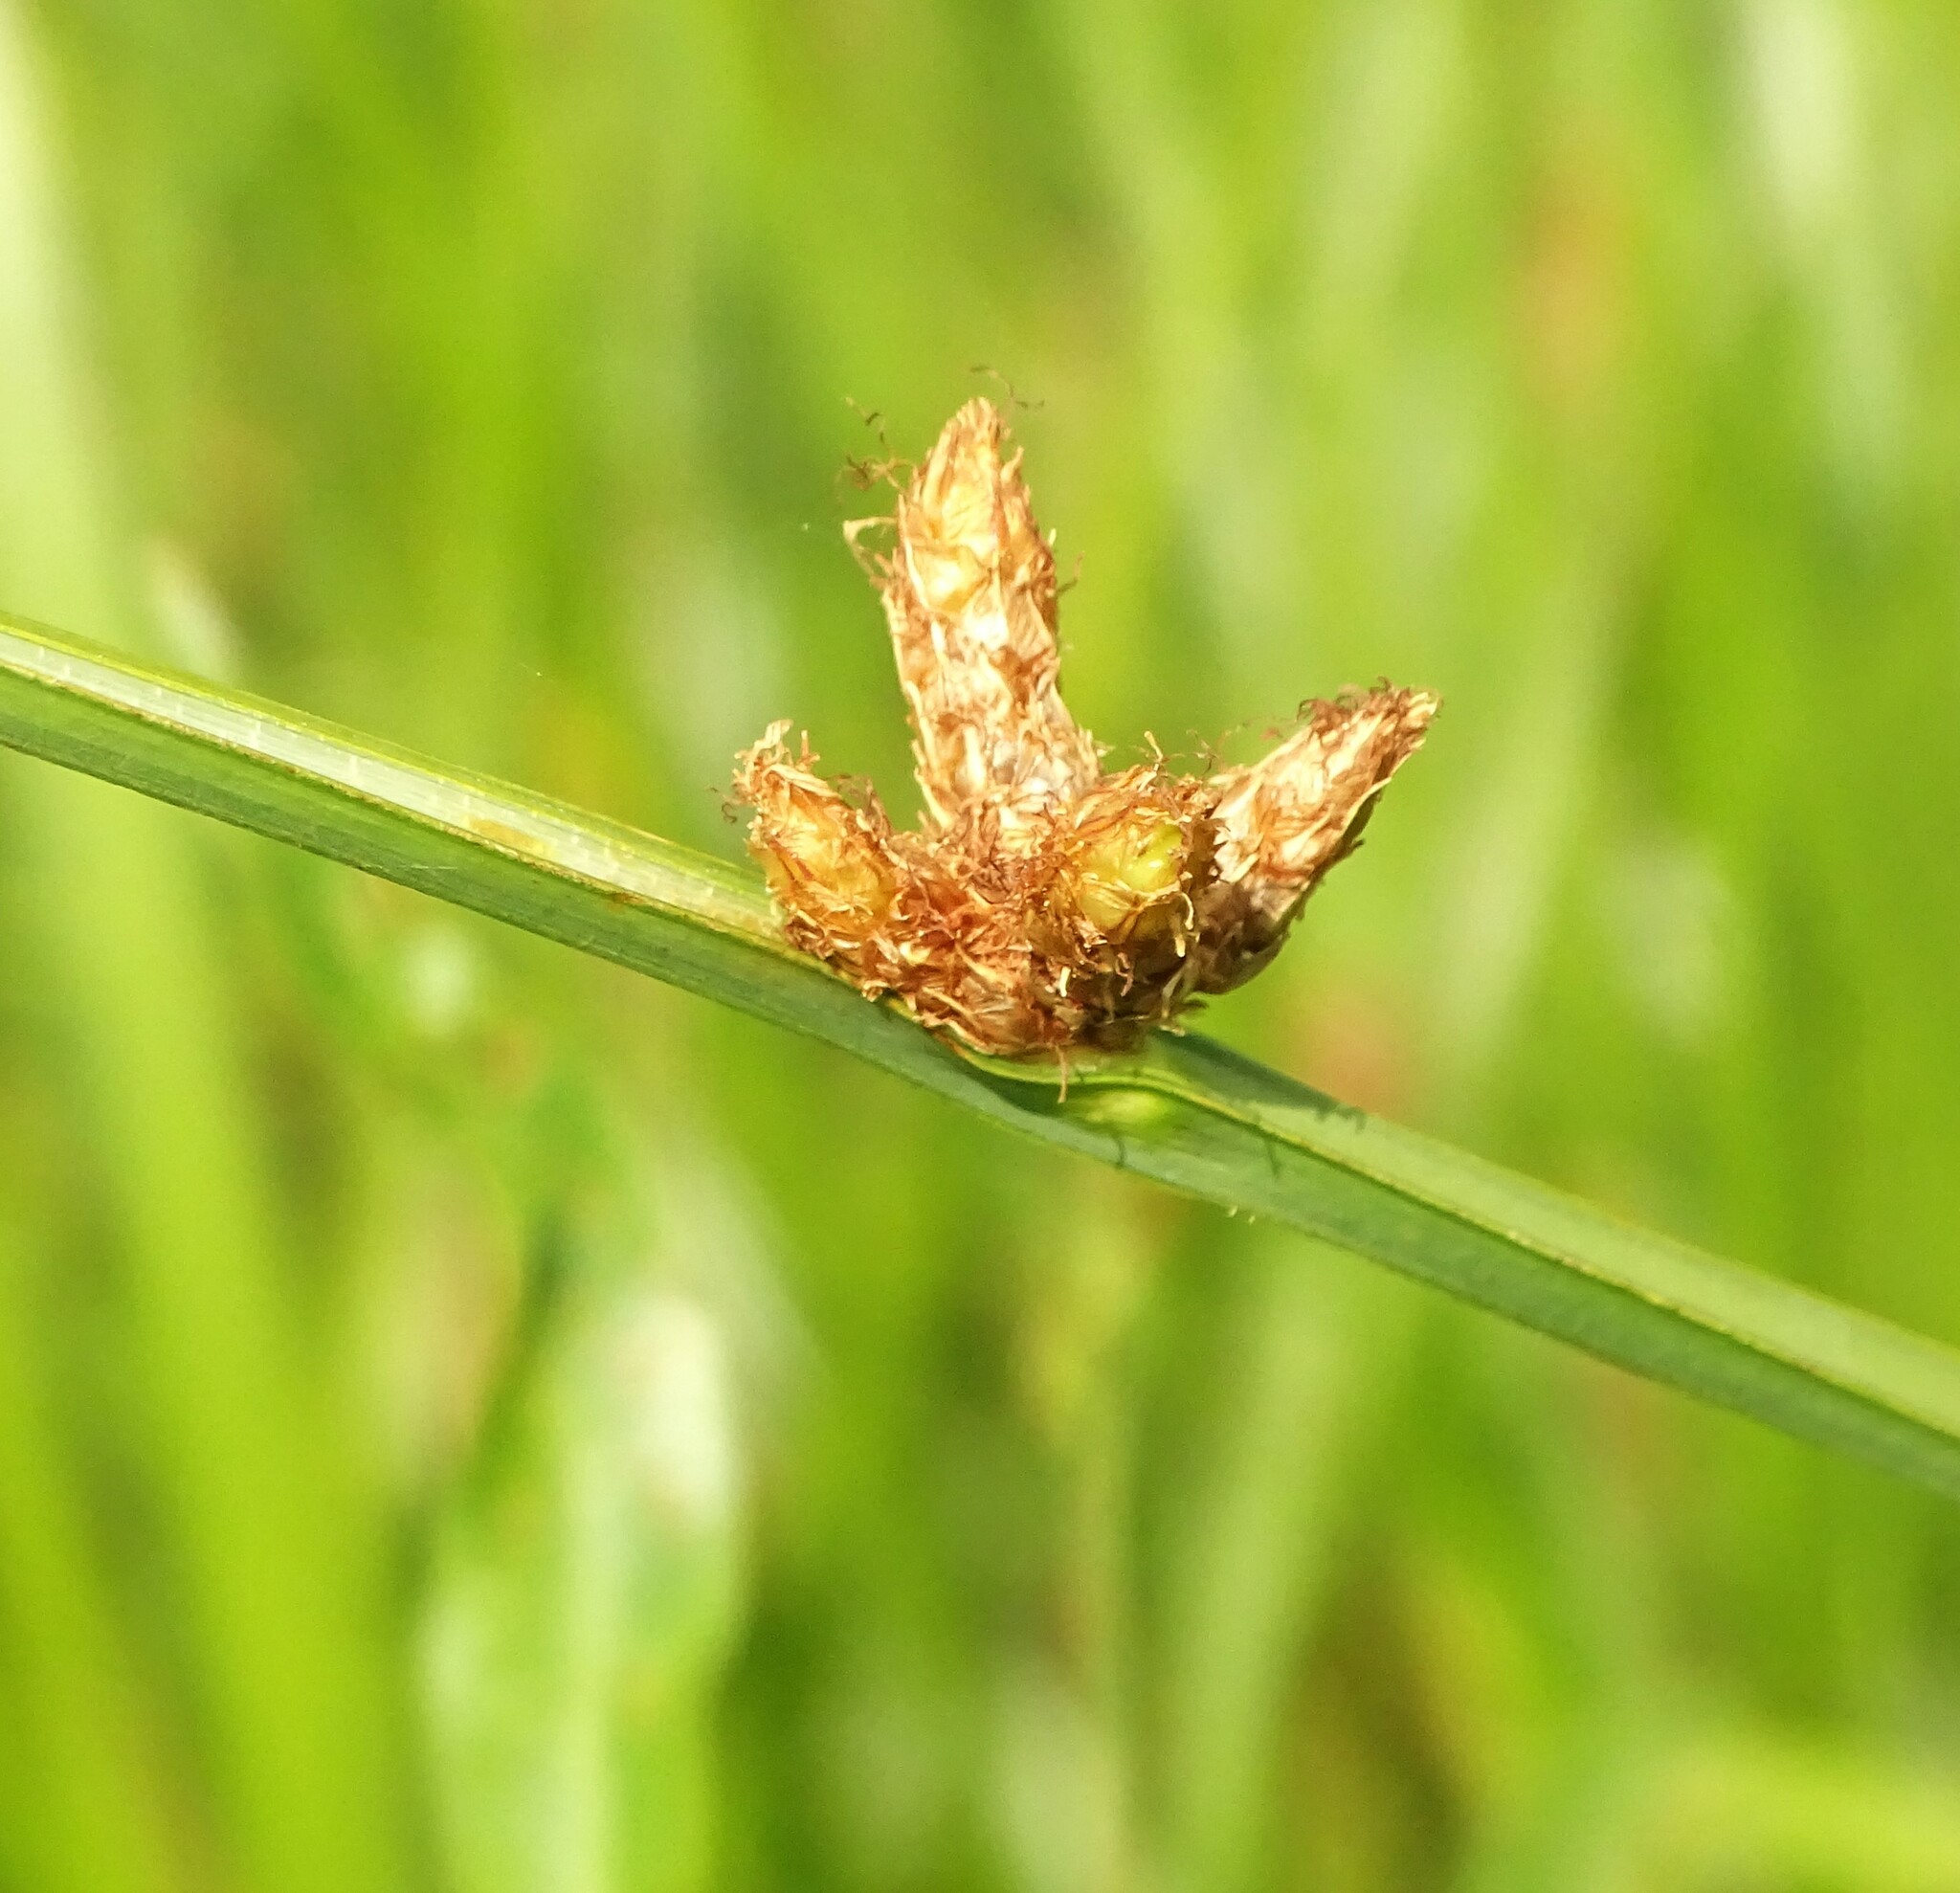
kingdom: Plantae
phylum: Tracheophyta
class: Liliopsida
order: Poales
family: Cyperaceae
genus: Schoenoplectus
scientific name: Schoenoplectus pungens
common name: Sharp club-rush
